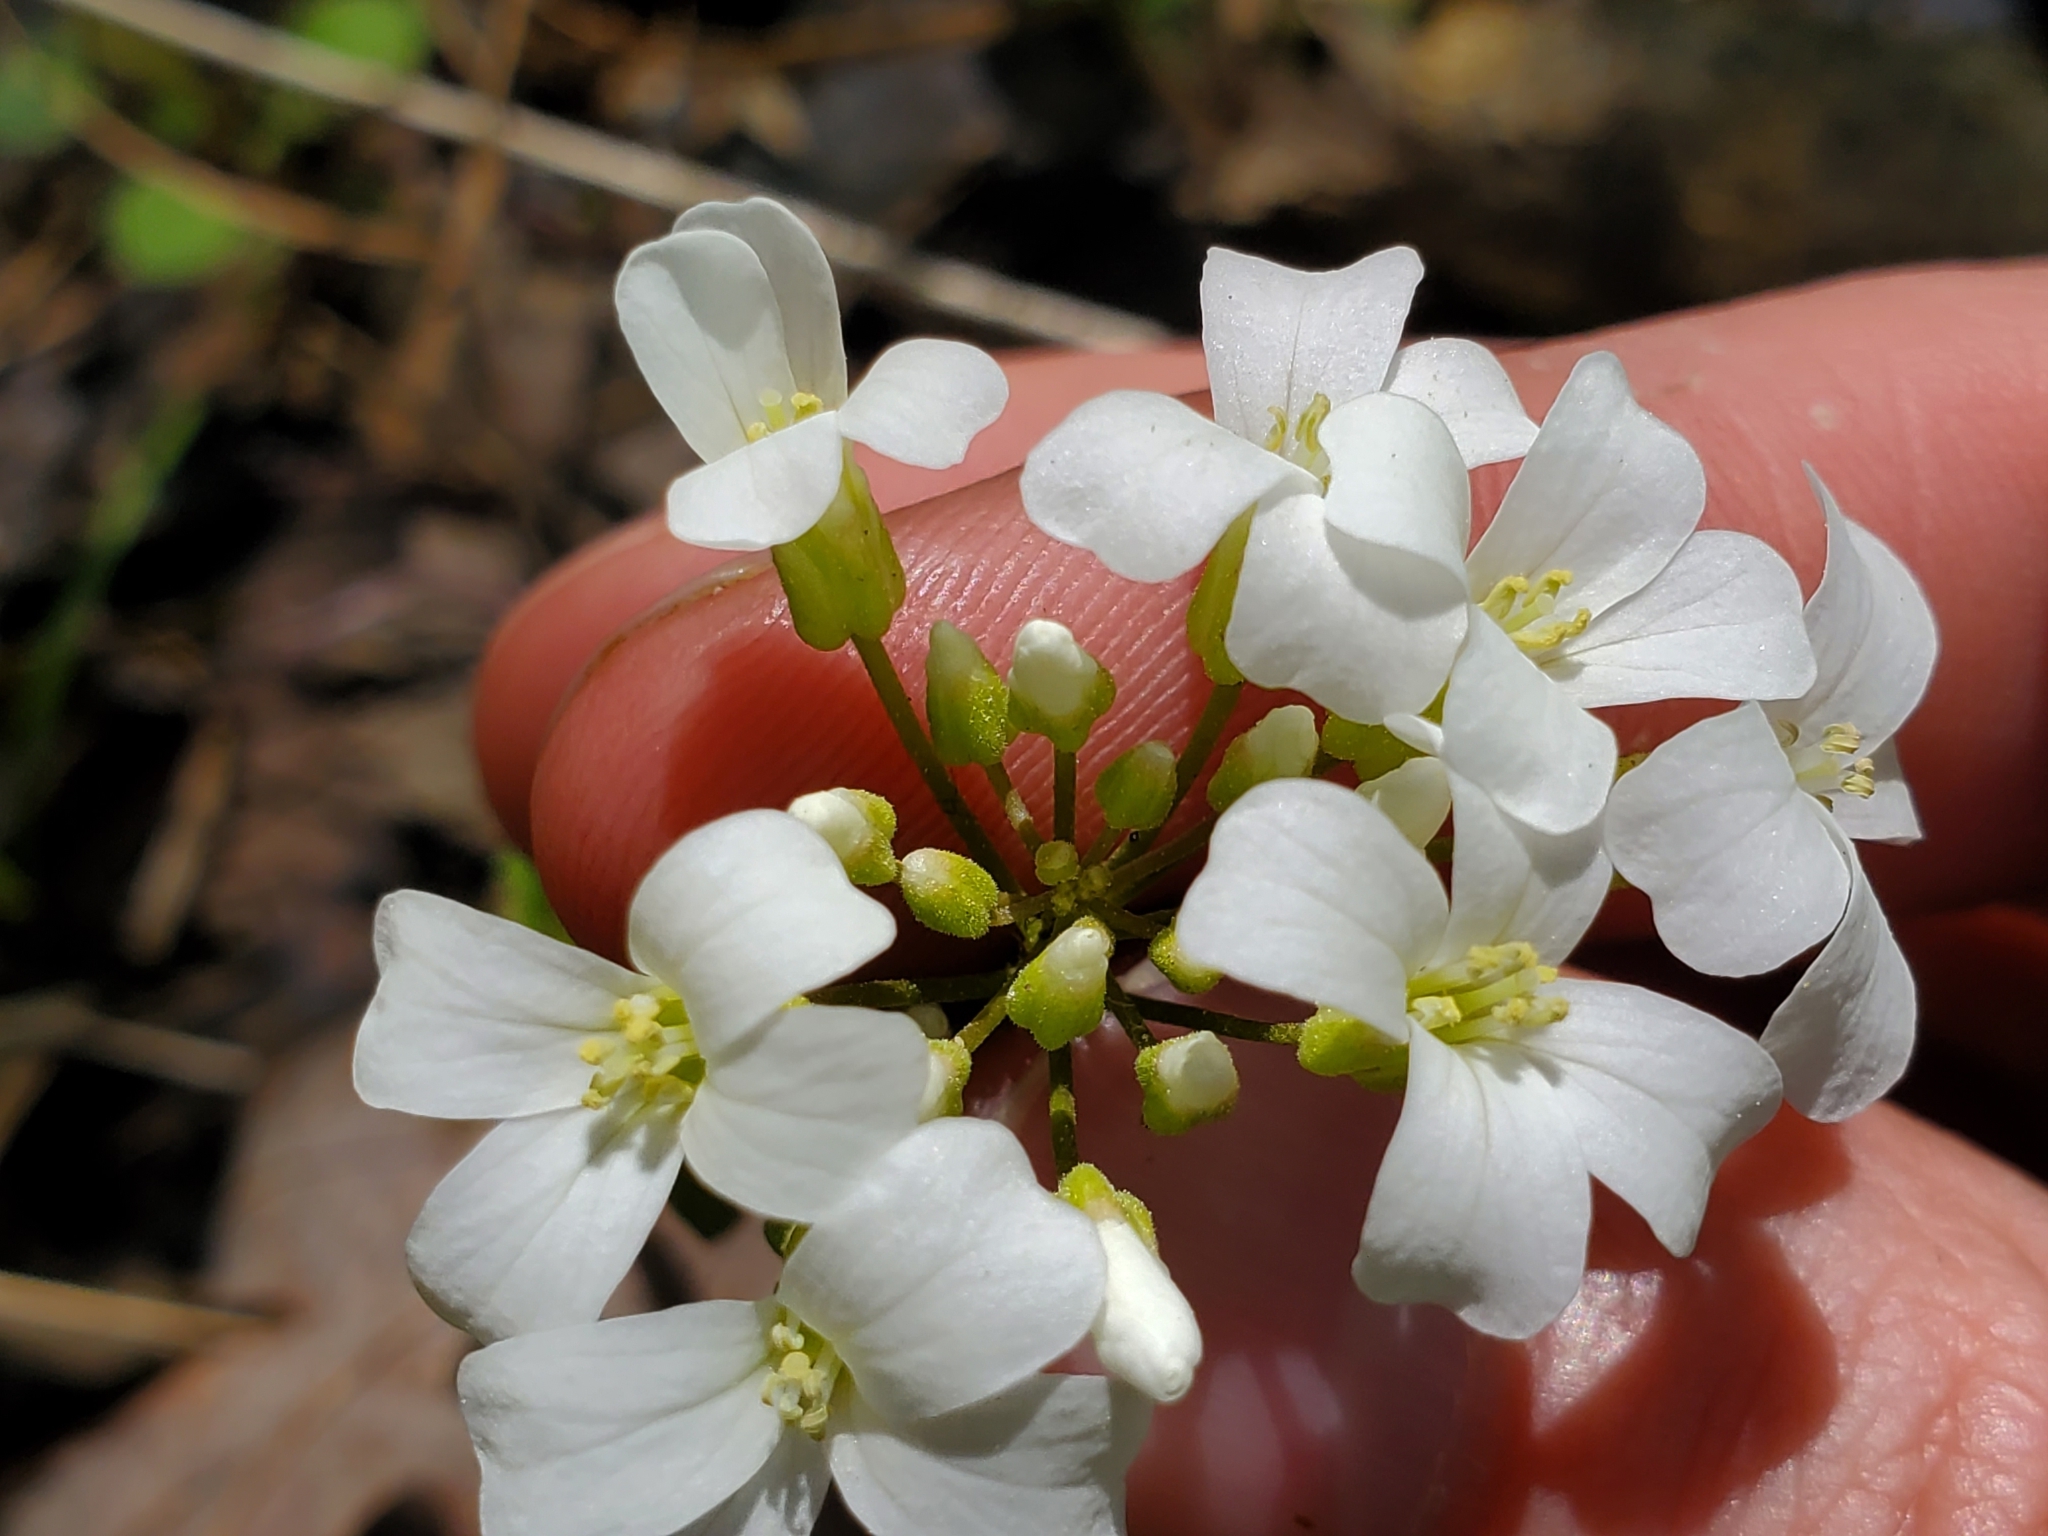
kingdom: Plantae
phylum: Tracheophyta
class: Magnoliopsida
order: Brassicales
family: Brassicaceae
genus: Cardamine
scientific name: Cardamine bulbosa
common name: Spring cress
